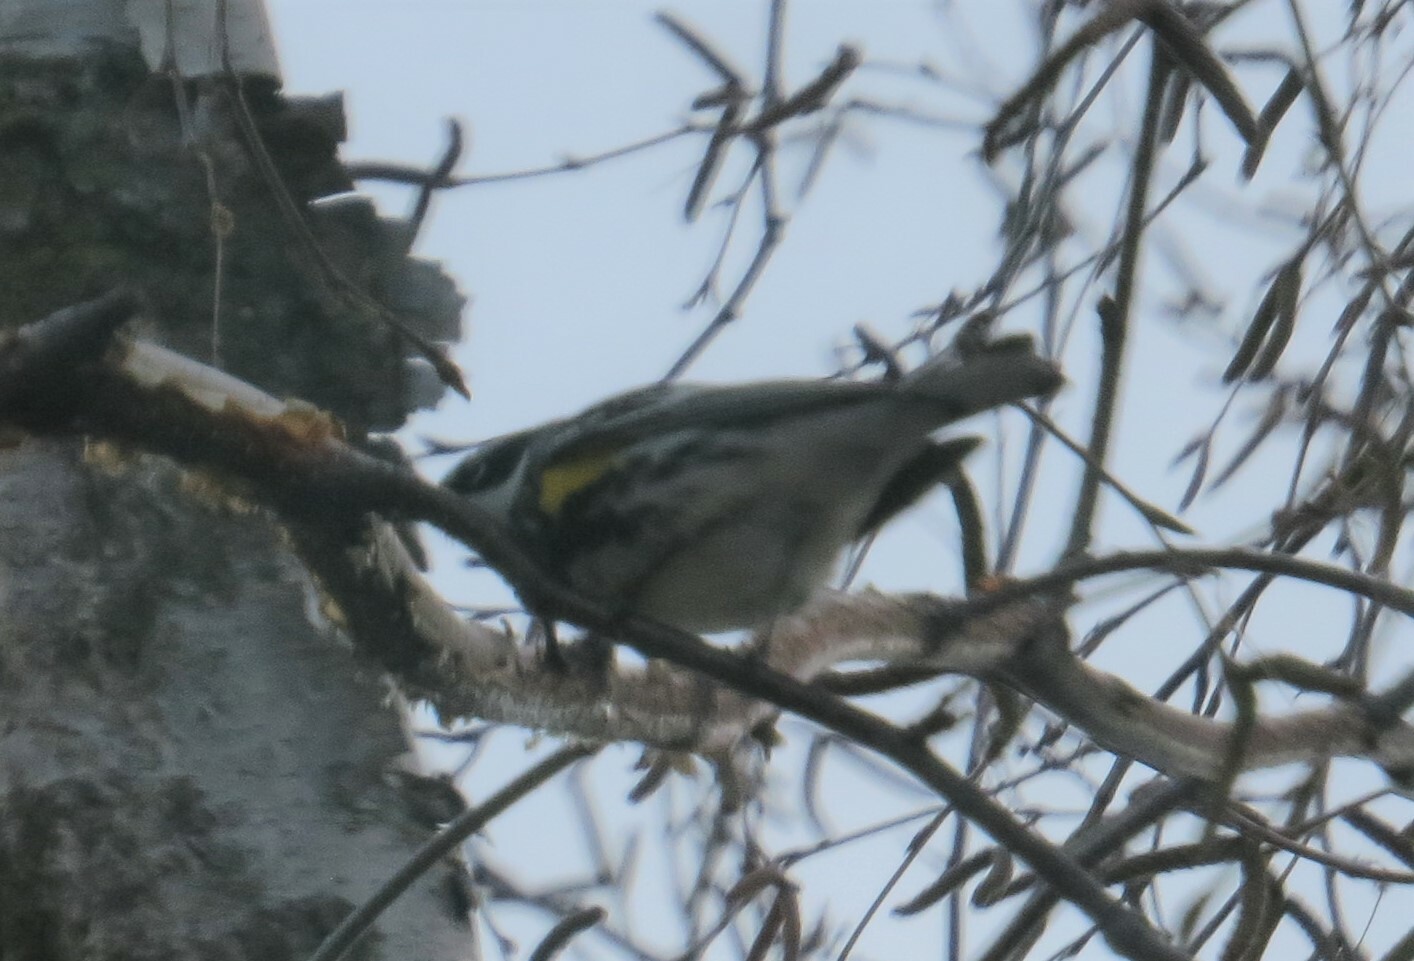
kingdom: Animalia
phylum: Chordata
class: Aves
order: Passeriformes
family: Parulidae
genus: Setophaga
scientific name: Setophaga coronata
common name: Myrtle warbler
